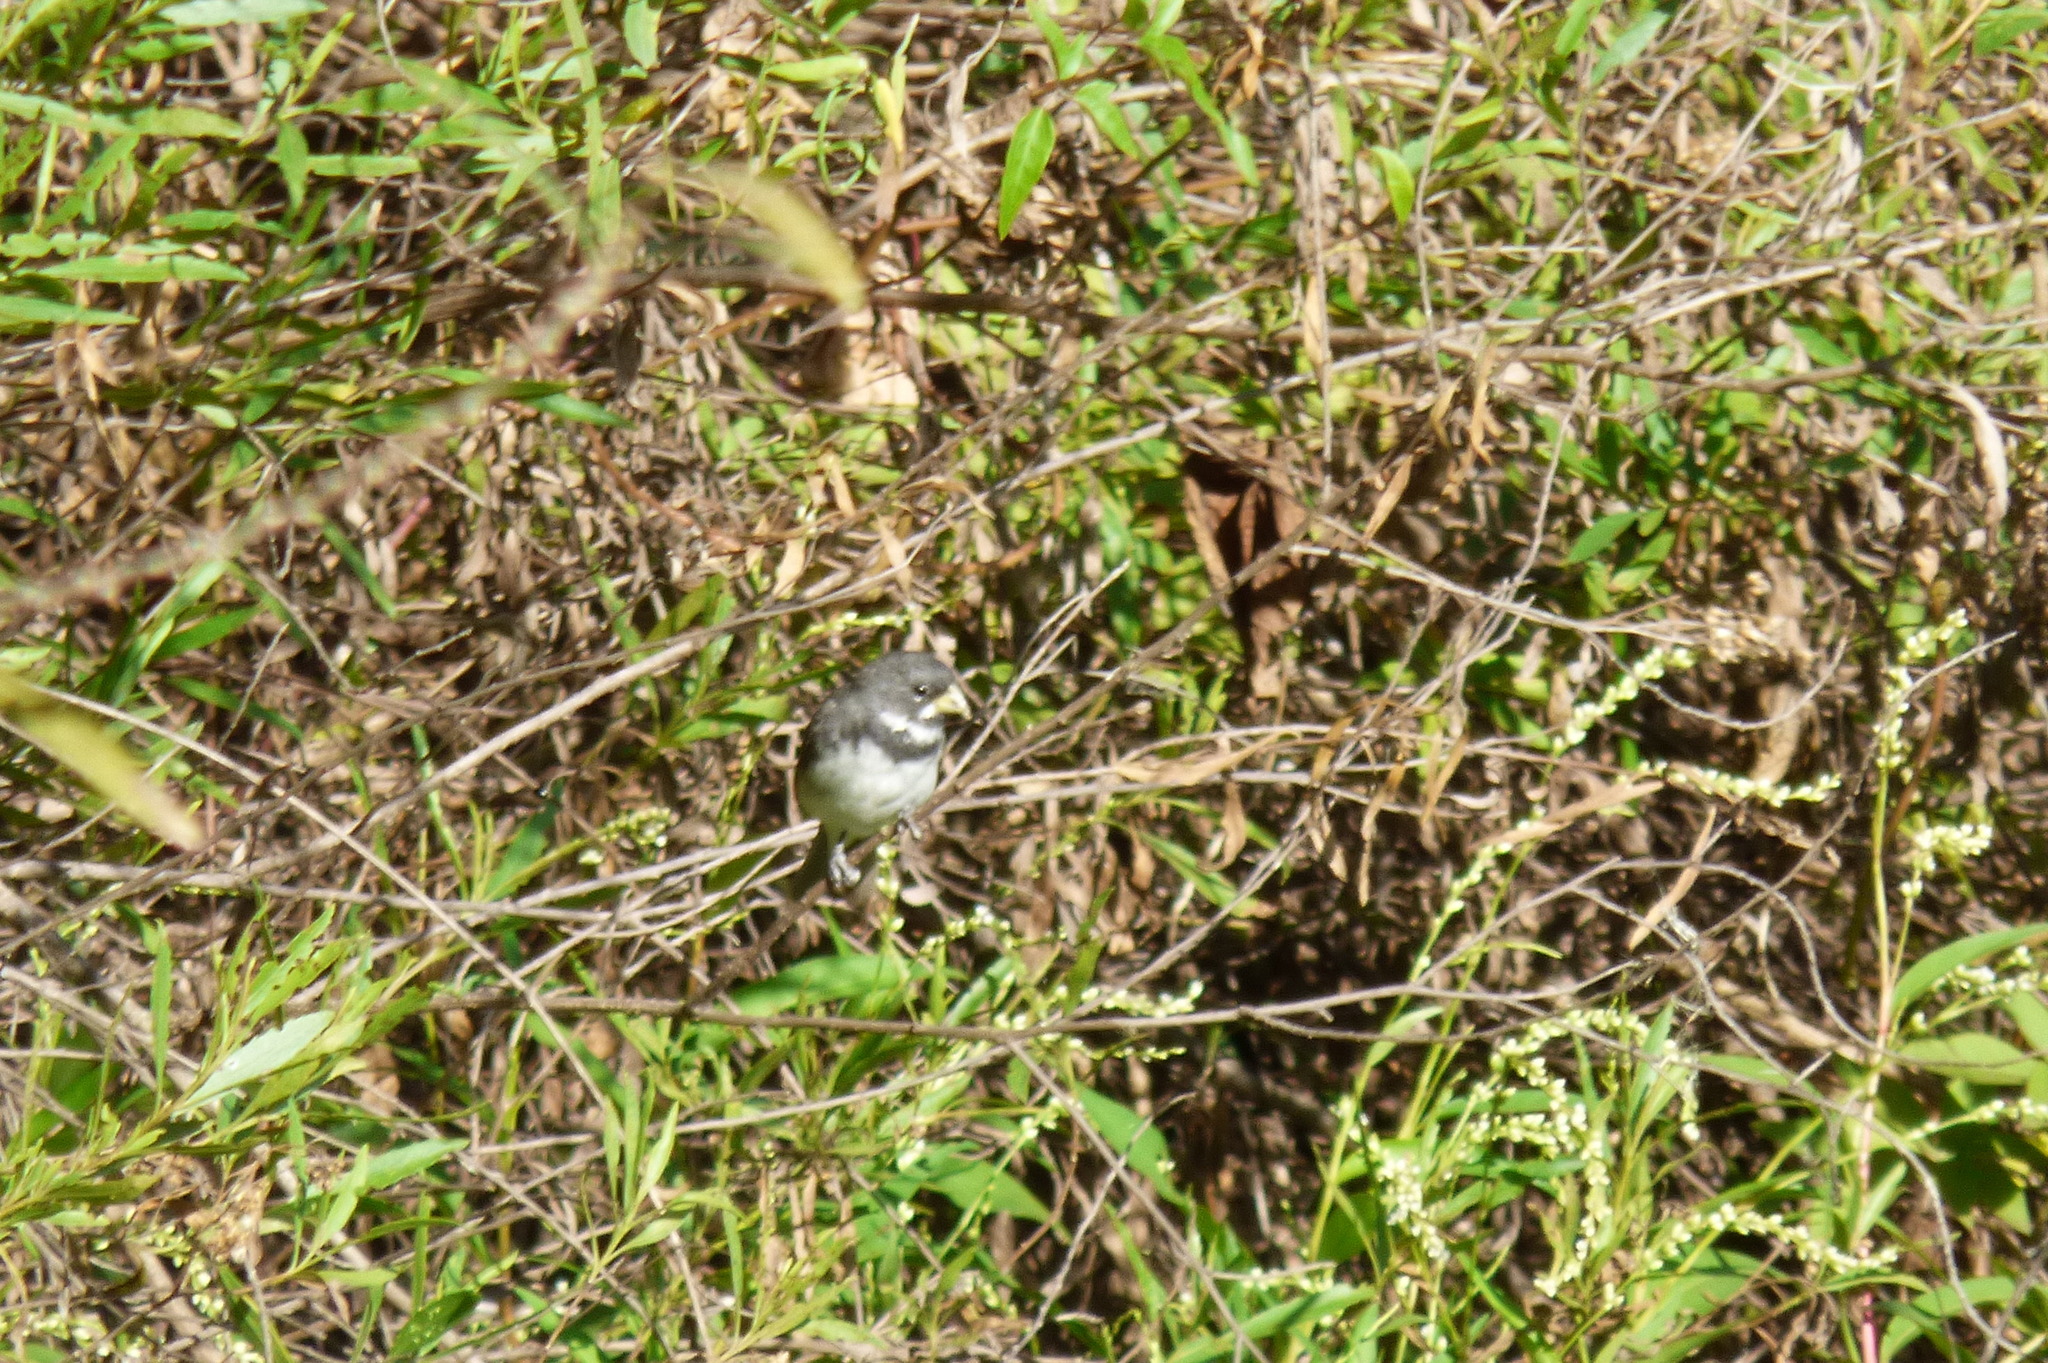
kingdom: Animalia
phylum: Chordata
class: Aves
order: Passeriformes
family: Thraupidae
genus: Sporophila
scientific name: Sporophila caerulescens
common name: Double-collared seedeater
